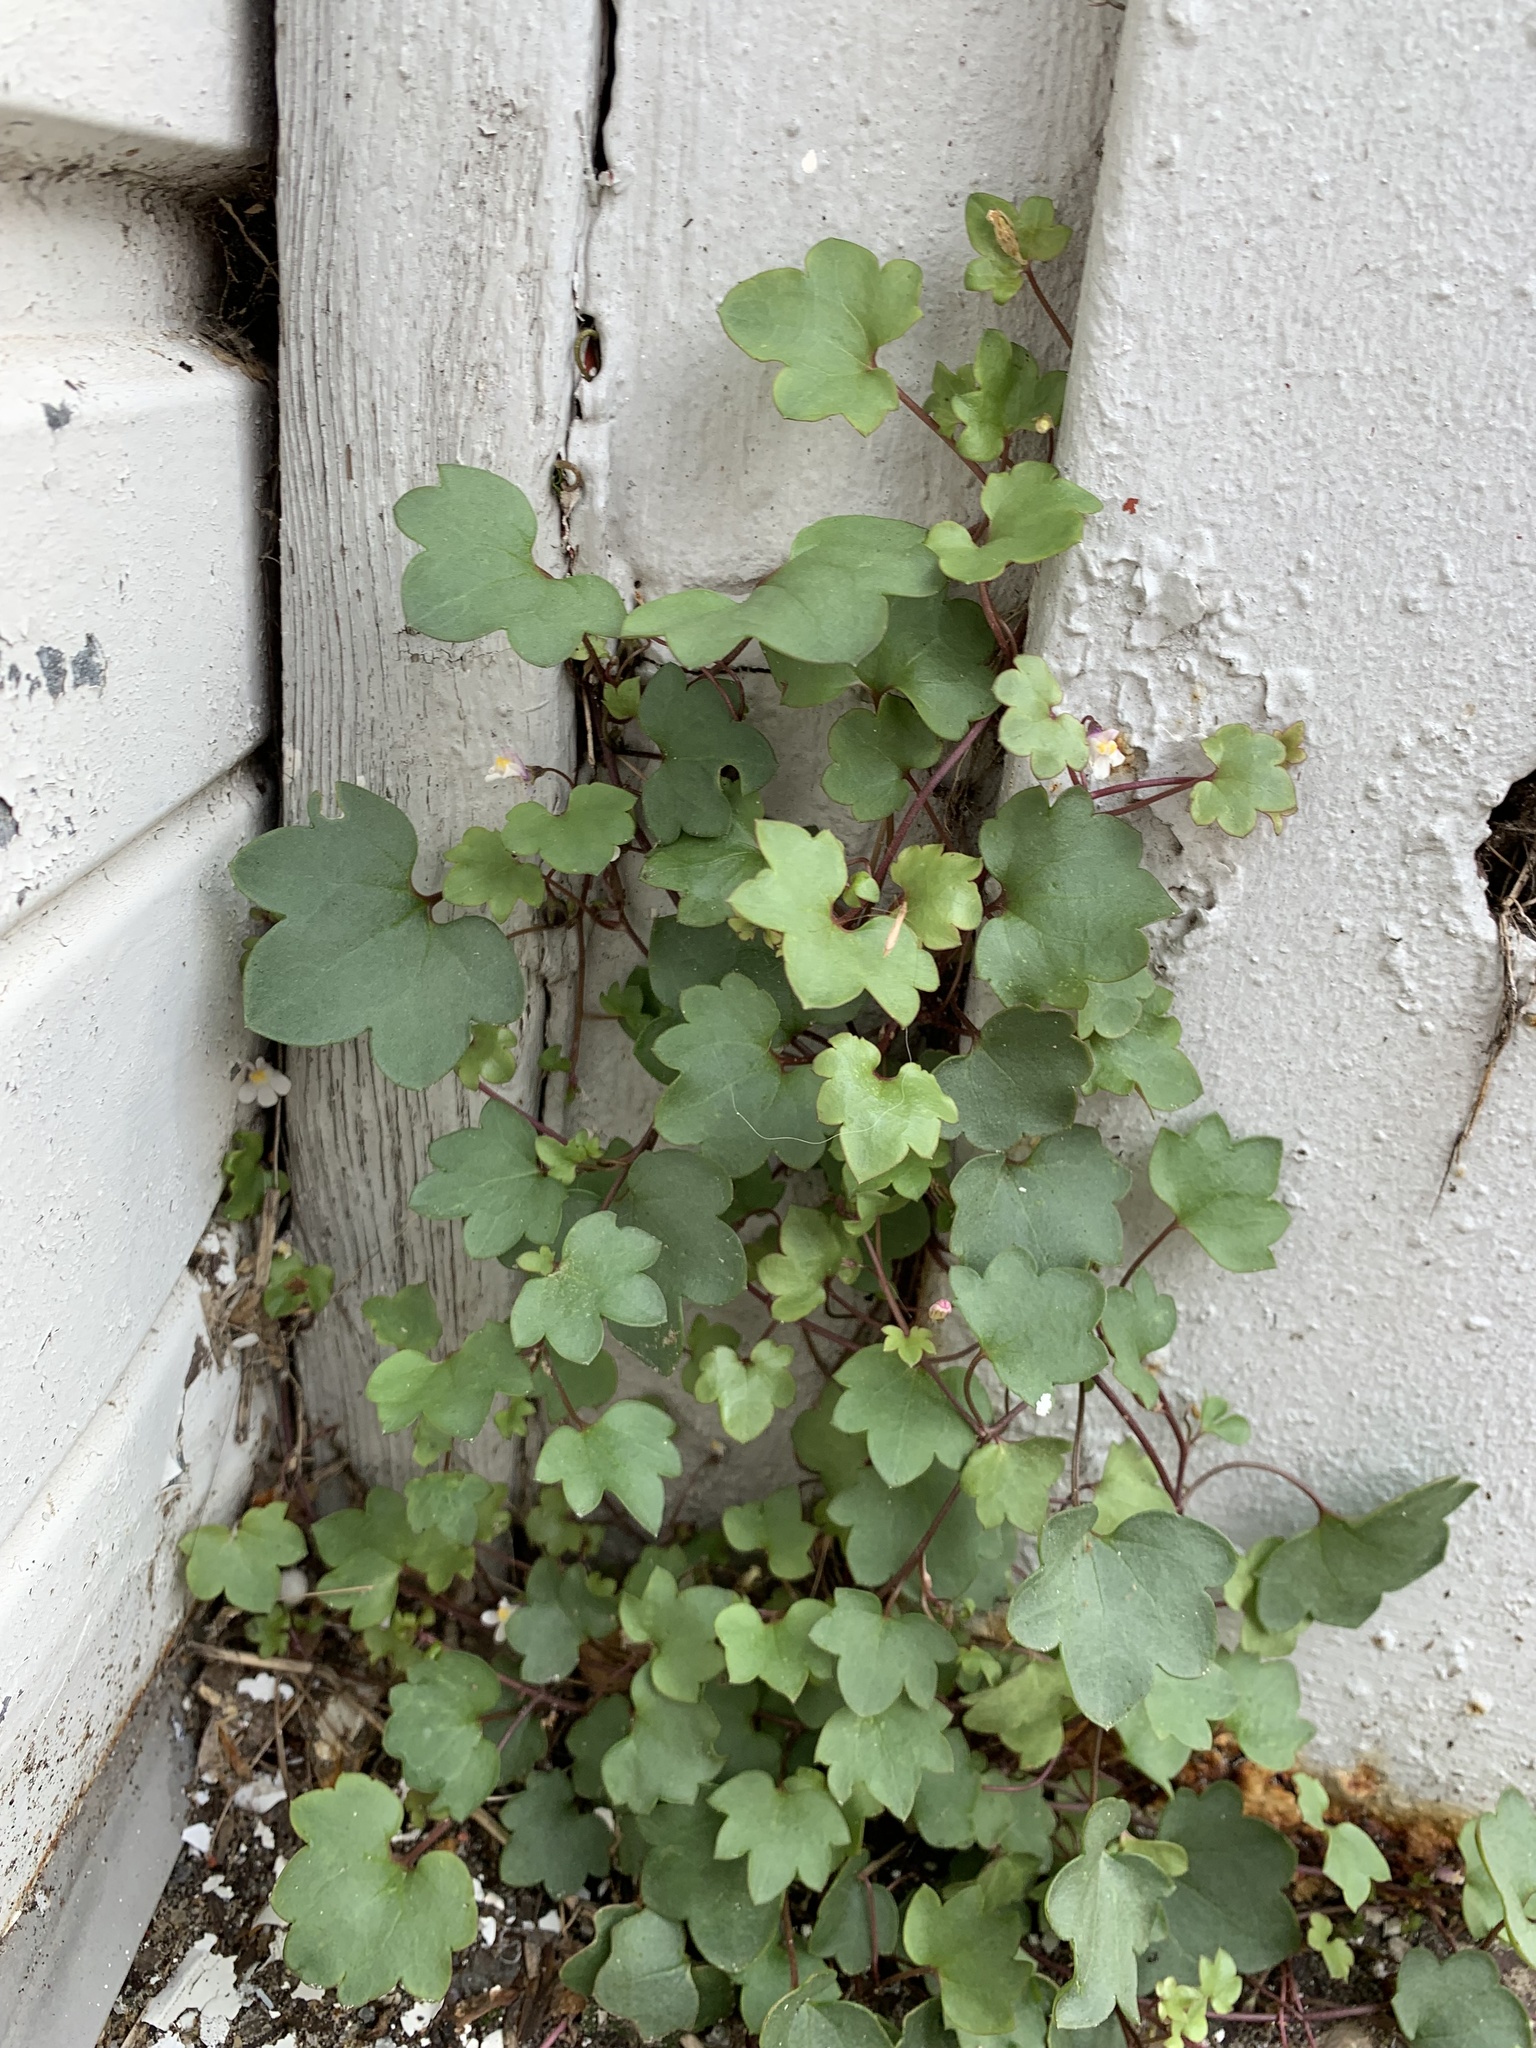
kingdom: Plantae
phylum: Tracheophyta
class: Magnoliopsida
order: Lamiales
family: Plantaginaceae
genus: Cymbalaria
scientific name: Cymbalaria muralis
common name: Ivy-leaved toadflax
